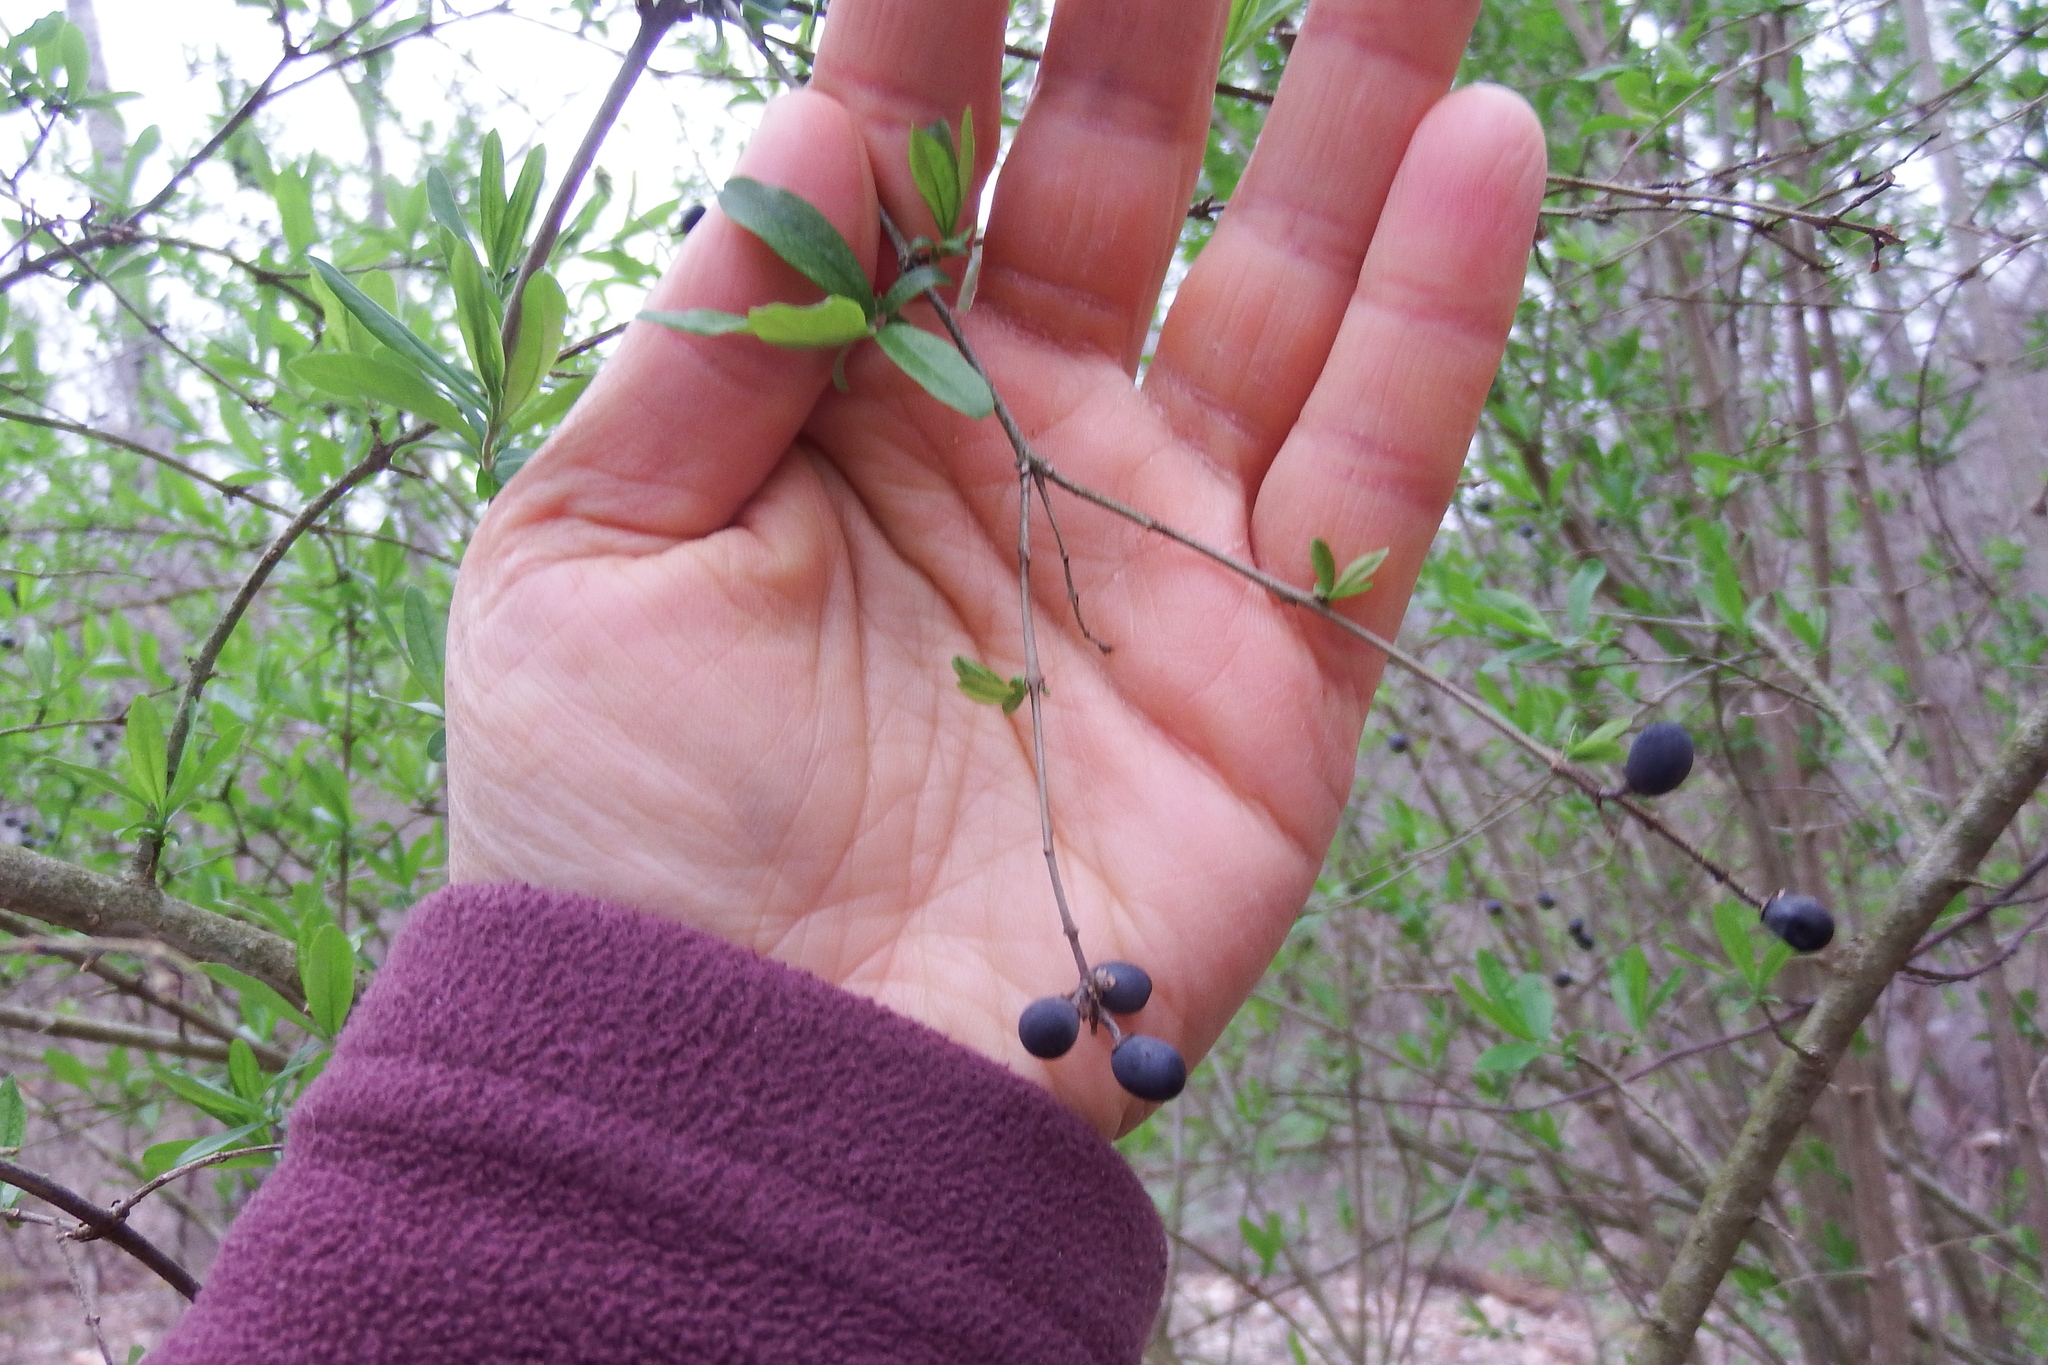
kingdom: Plantae
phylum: Tracheophyta
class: Magnoliopsida
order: Lamiales
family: Oleaceae
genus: Ligustrum
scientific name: Ligustrum obtusifolium
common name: Border privet
